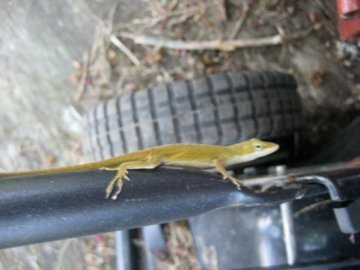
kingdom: Animalia
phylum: Chordata
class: Squamata
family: Dactyloidae
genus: Anolis
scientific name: Anolis carolinensis
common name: Green anole
